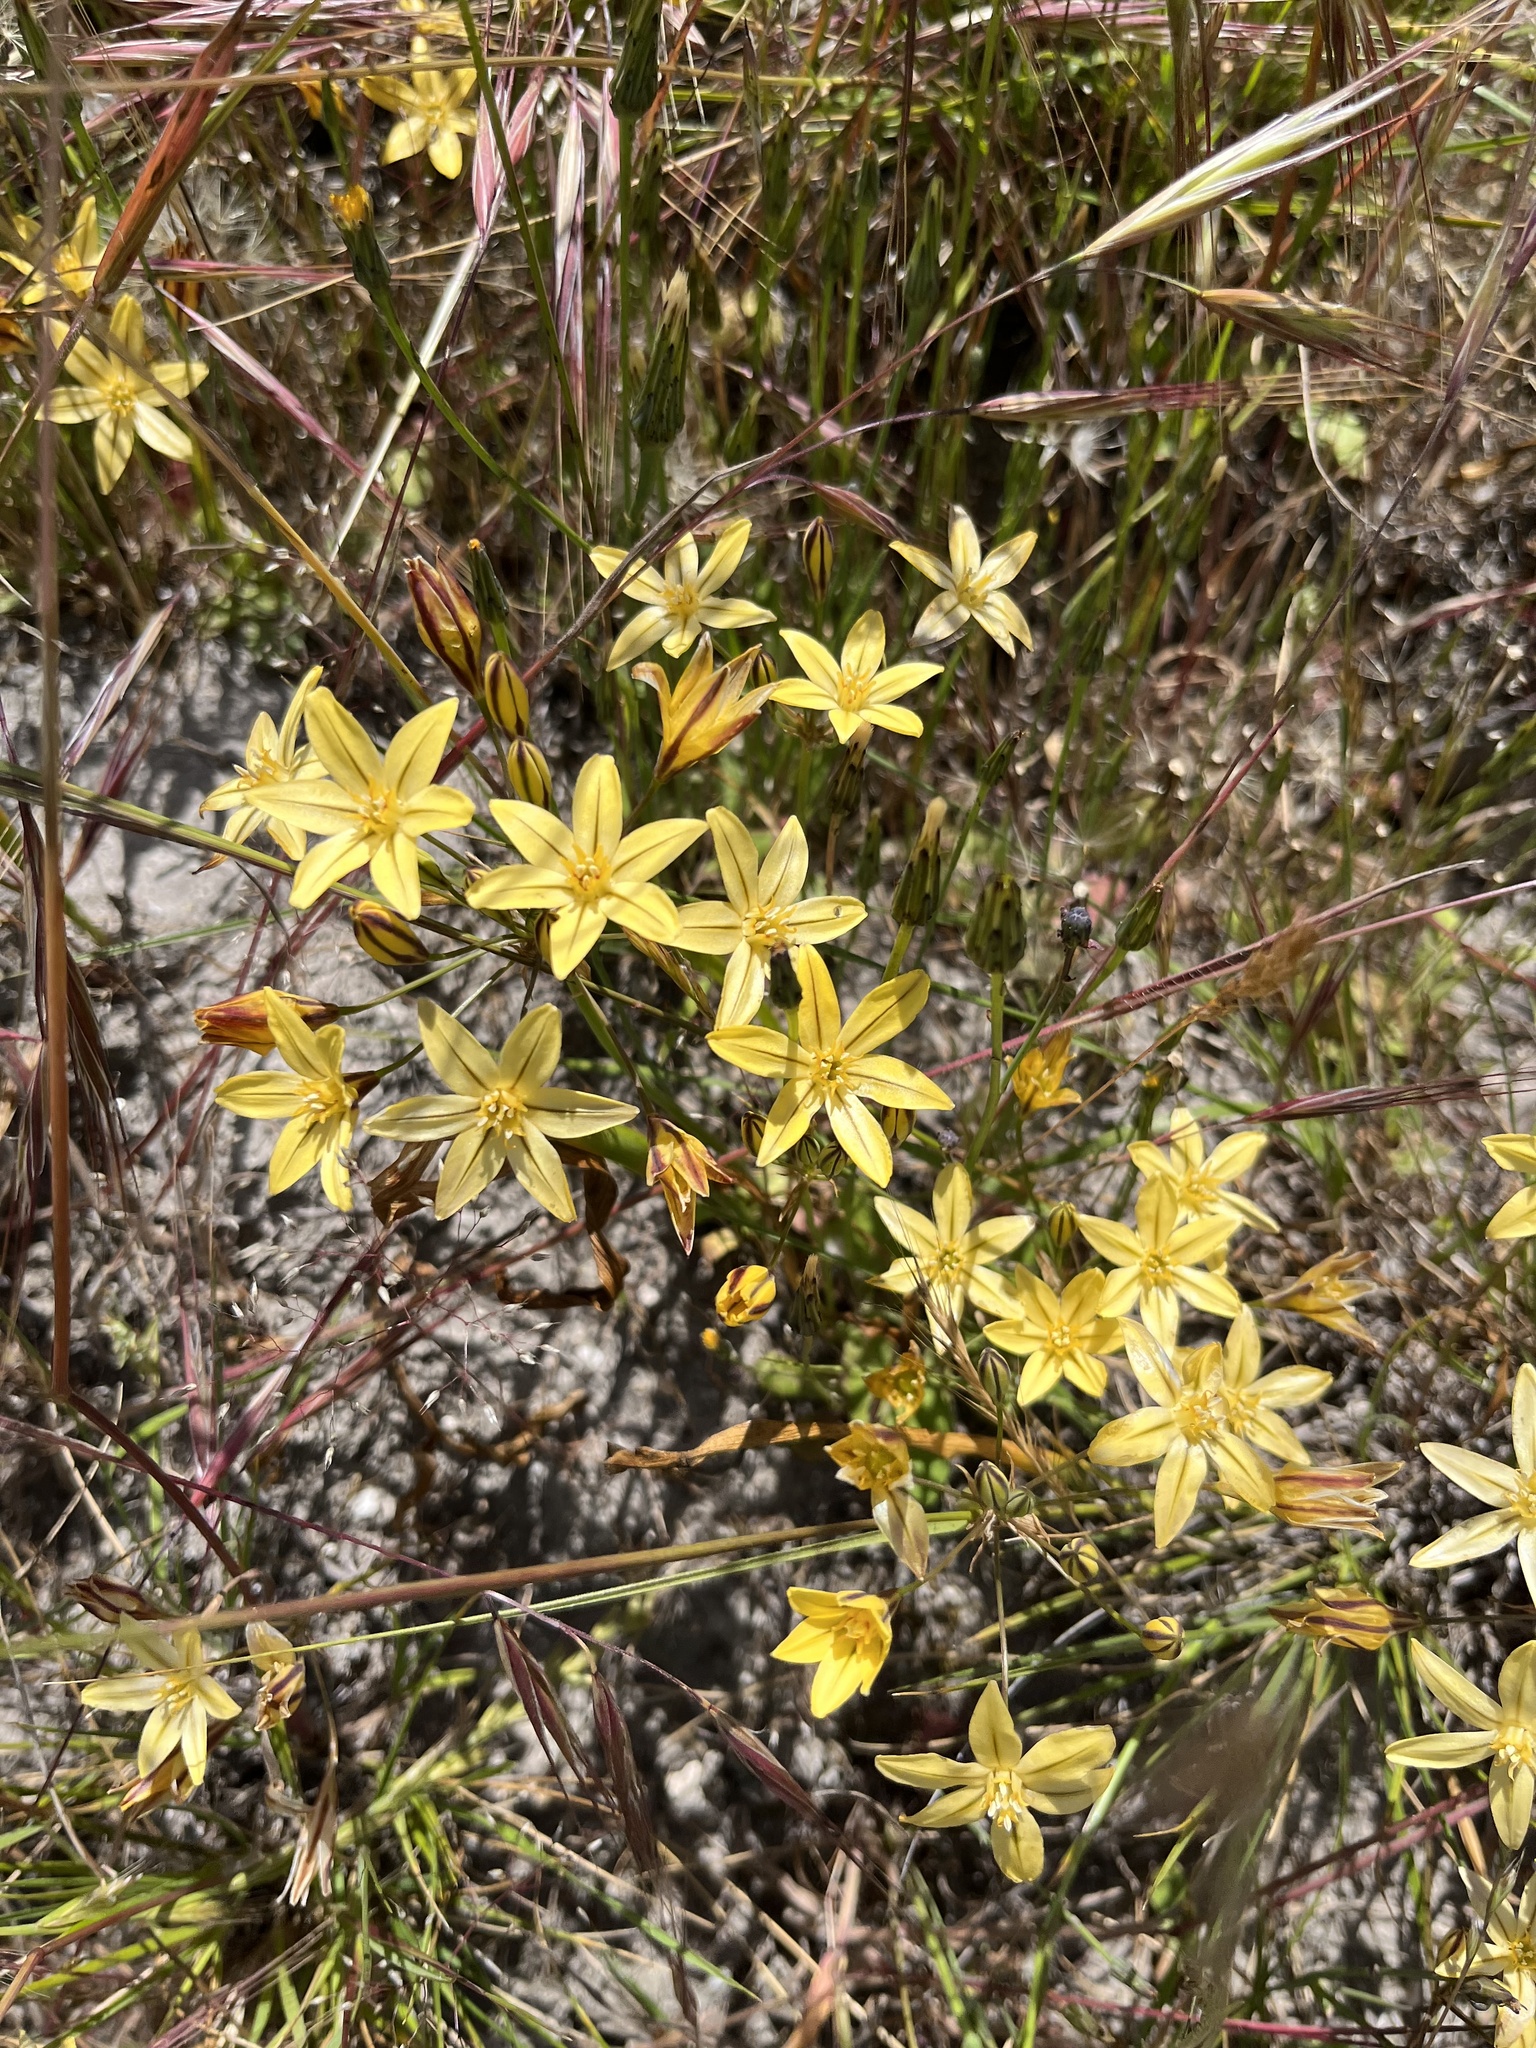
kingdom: Plantae
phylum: Tracheophyta
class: Liliopsida
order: Asparagales
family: Asparagaceae
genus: Triteleia
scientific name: Triteleia ixioides
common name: Yellow-brodiaea
